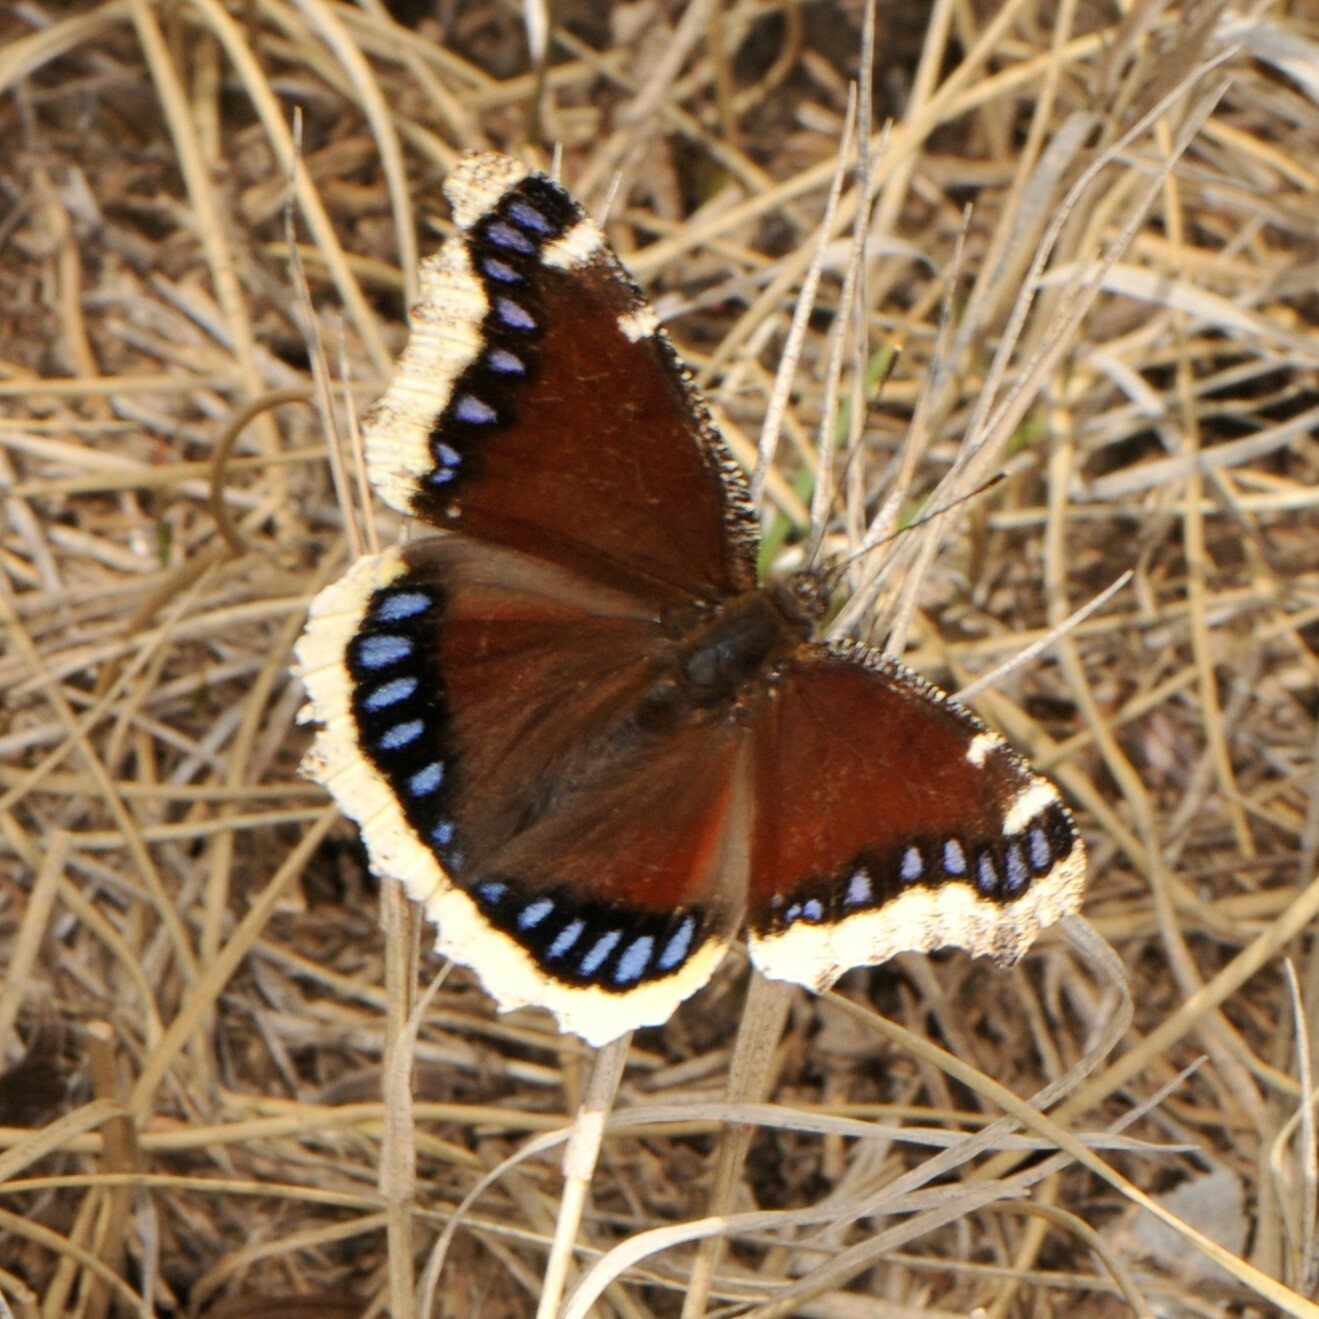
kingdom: Animalia
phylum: Arthropoda
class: Insecta
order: Lepidoptera
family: Nymphalidae
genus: Nymphalis
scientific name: Nymphalis antiopa
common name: Camberwell beauty
